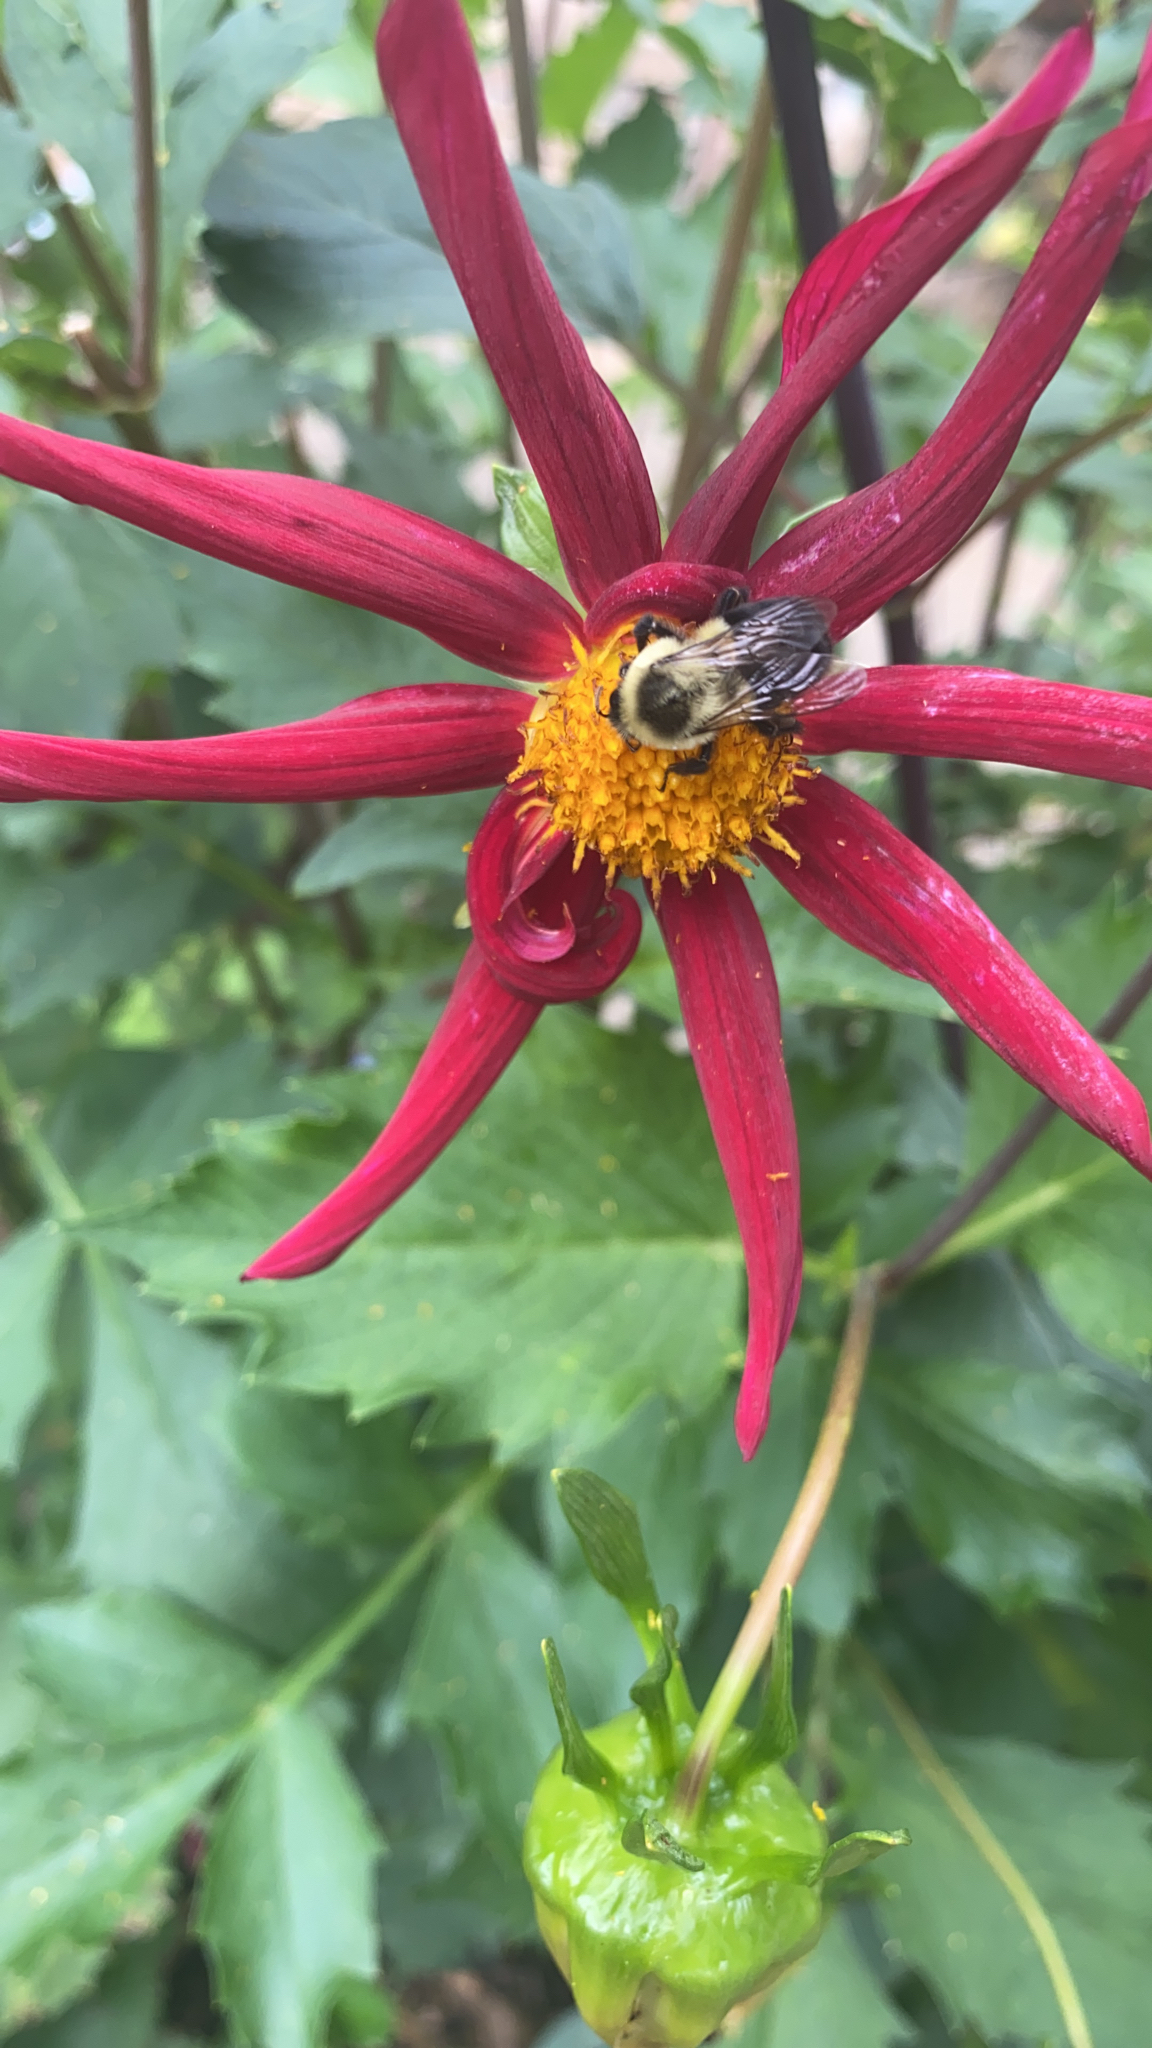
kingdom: Animalia
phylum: Arthropoda
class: Insecta
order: Hymenoptera
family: Apidae
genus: Bombus
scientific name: Bombus impatiens
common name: Common eastern bumble bee
